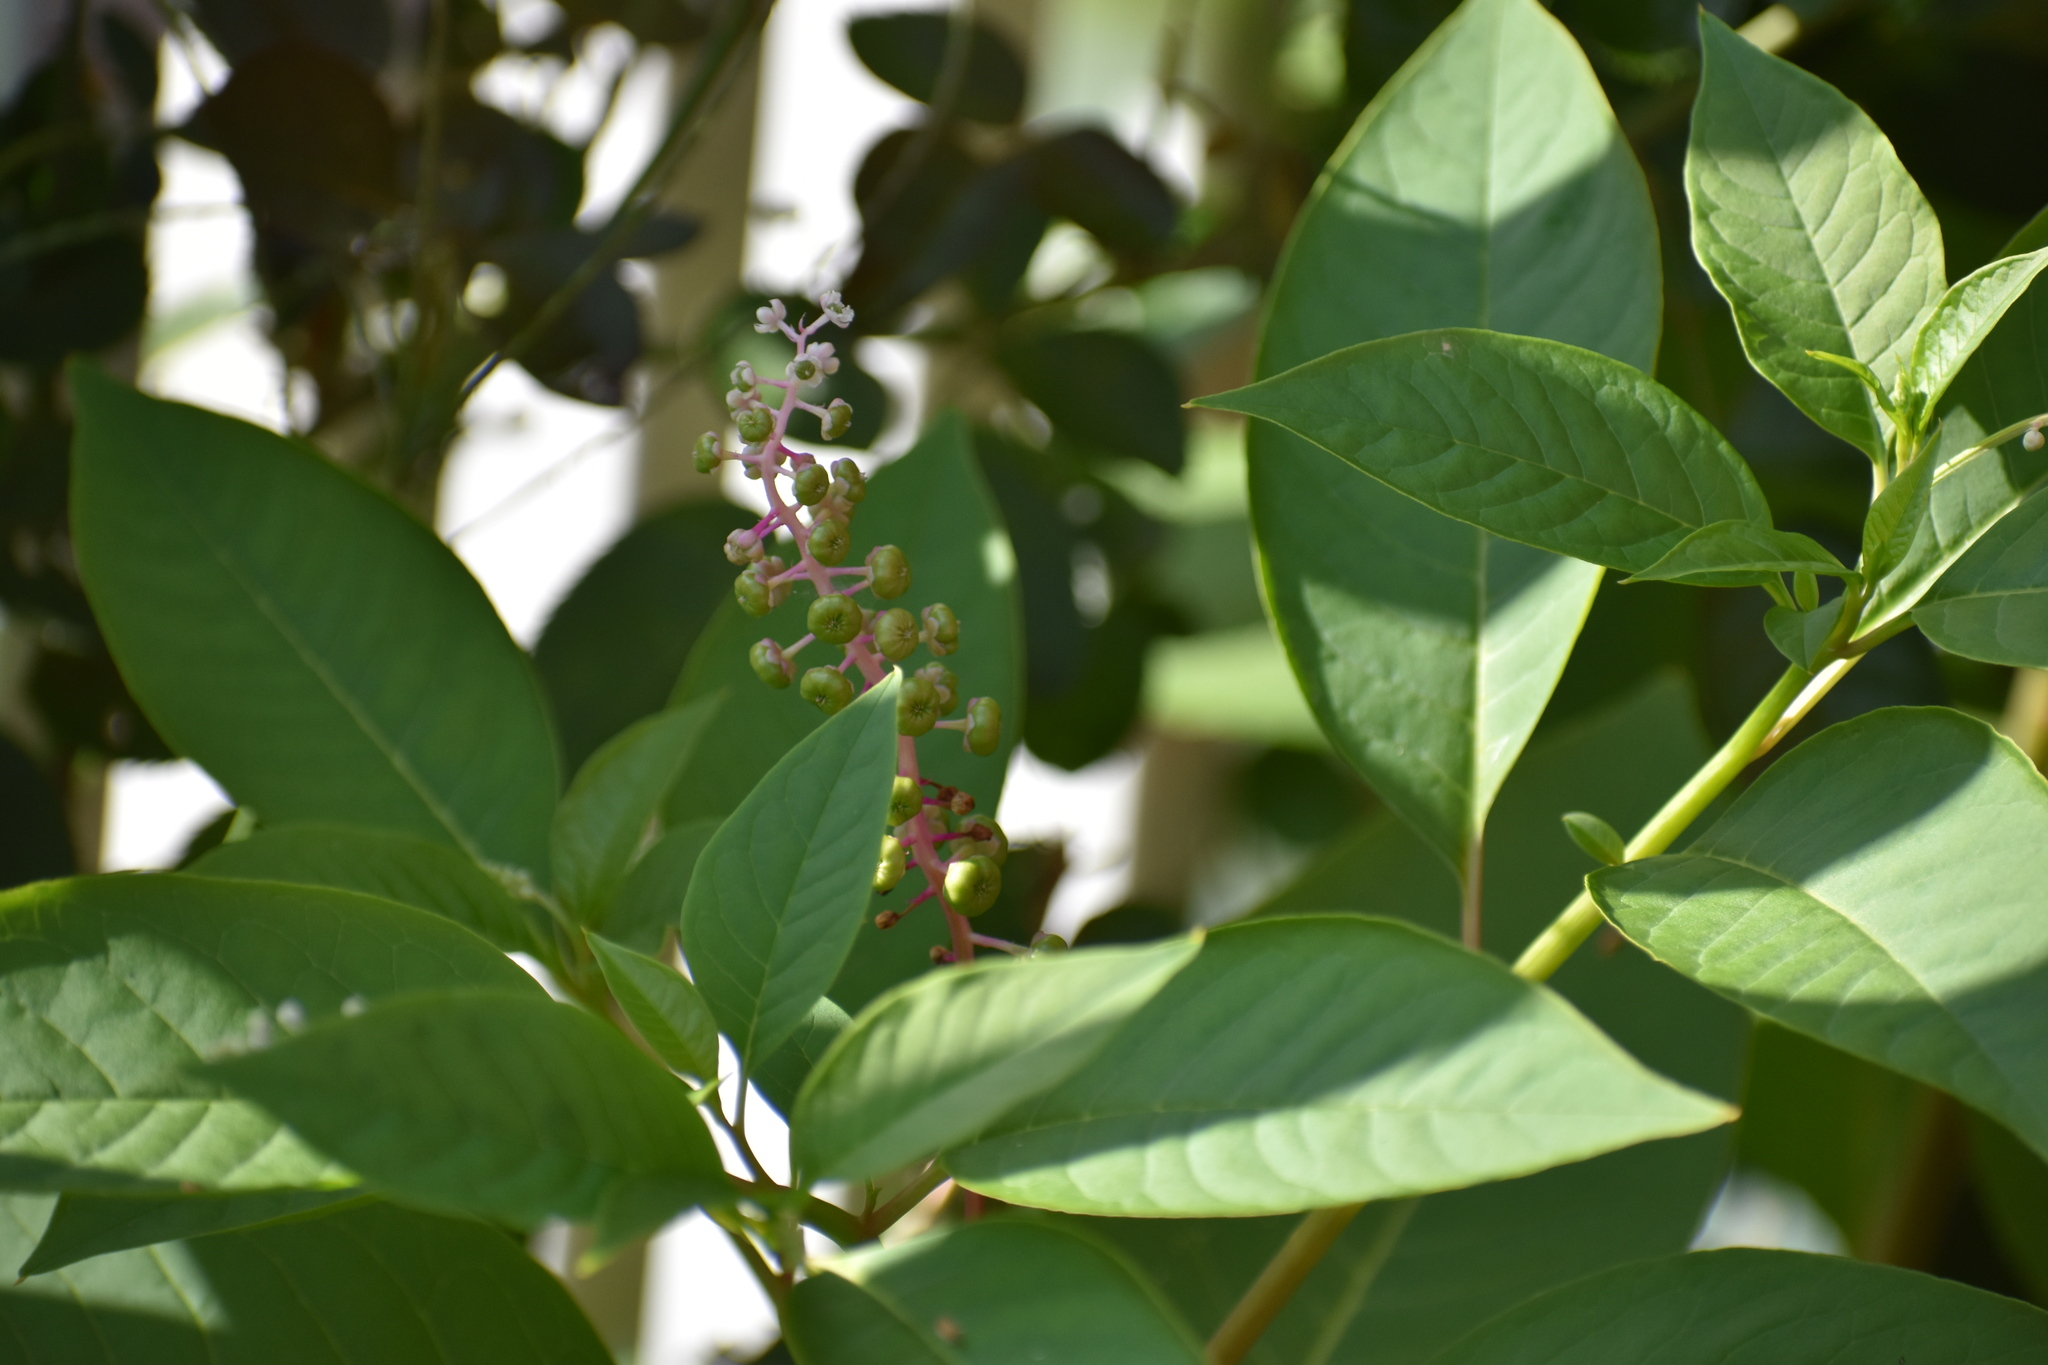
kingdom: Plantae
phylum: Tracheophyta
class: Magnoliopsida
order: Caryophyllales
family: Phytolaccaceae
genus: Phytolacca
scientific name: Phytolacca americana
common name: American pokeweed
